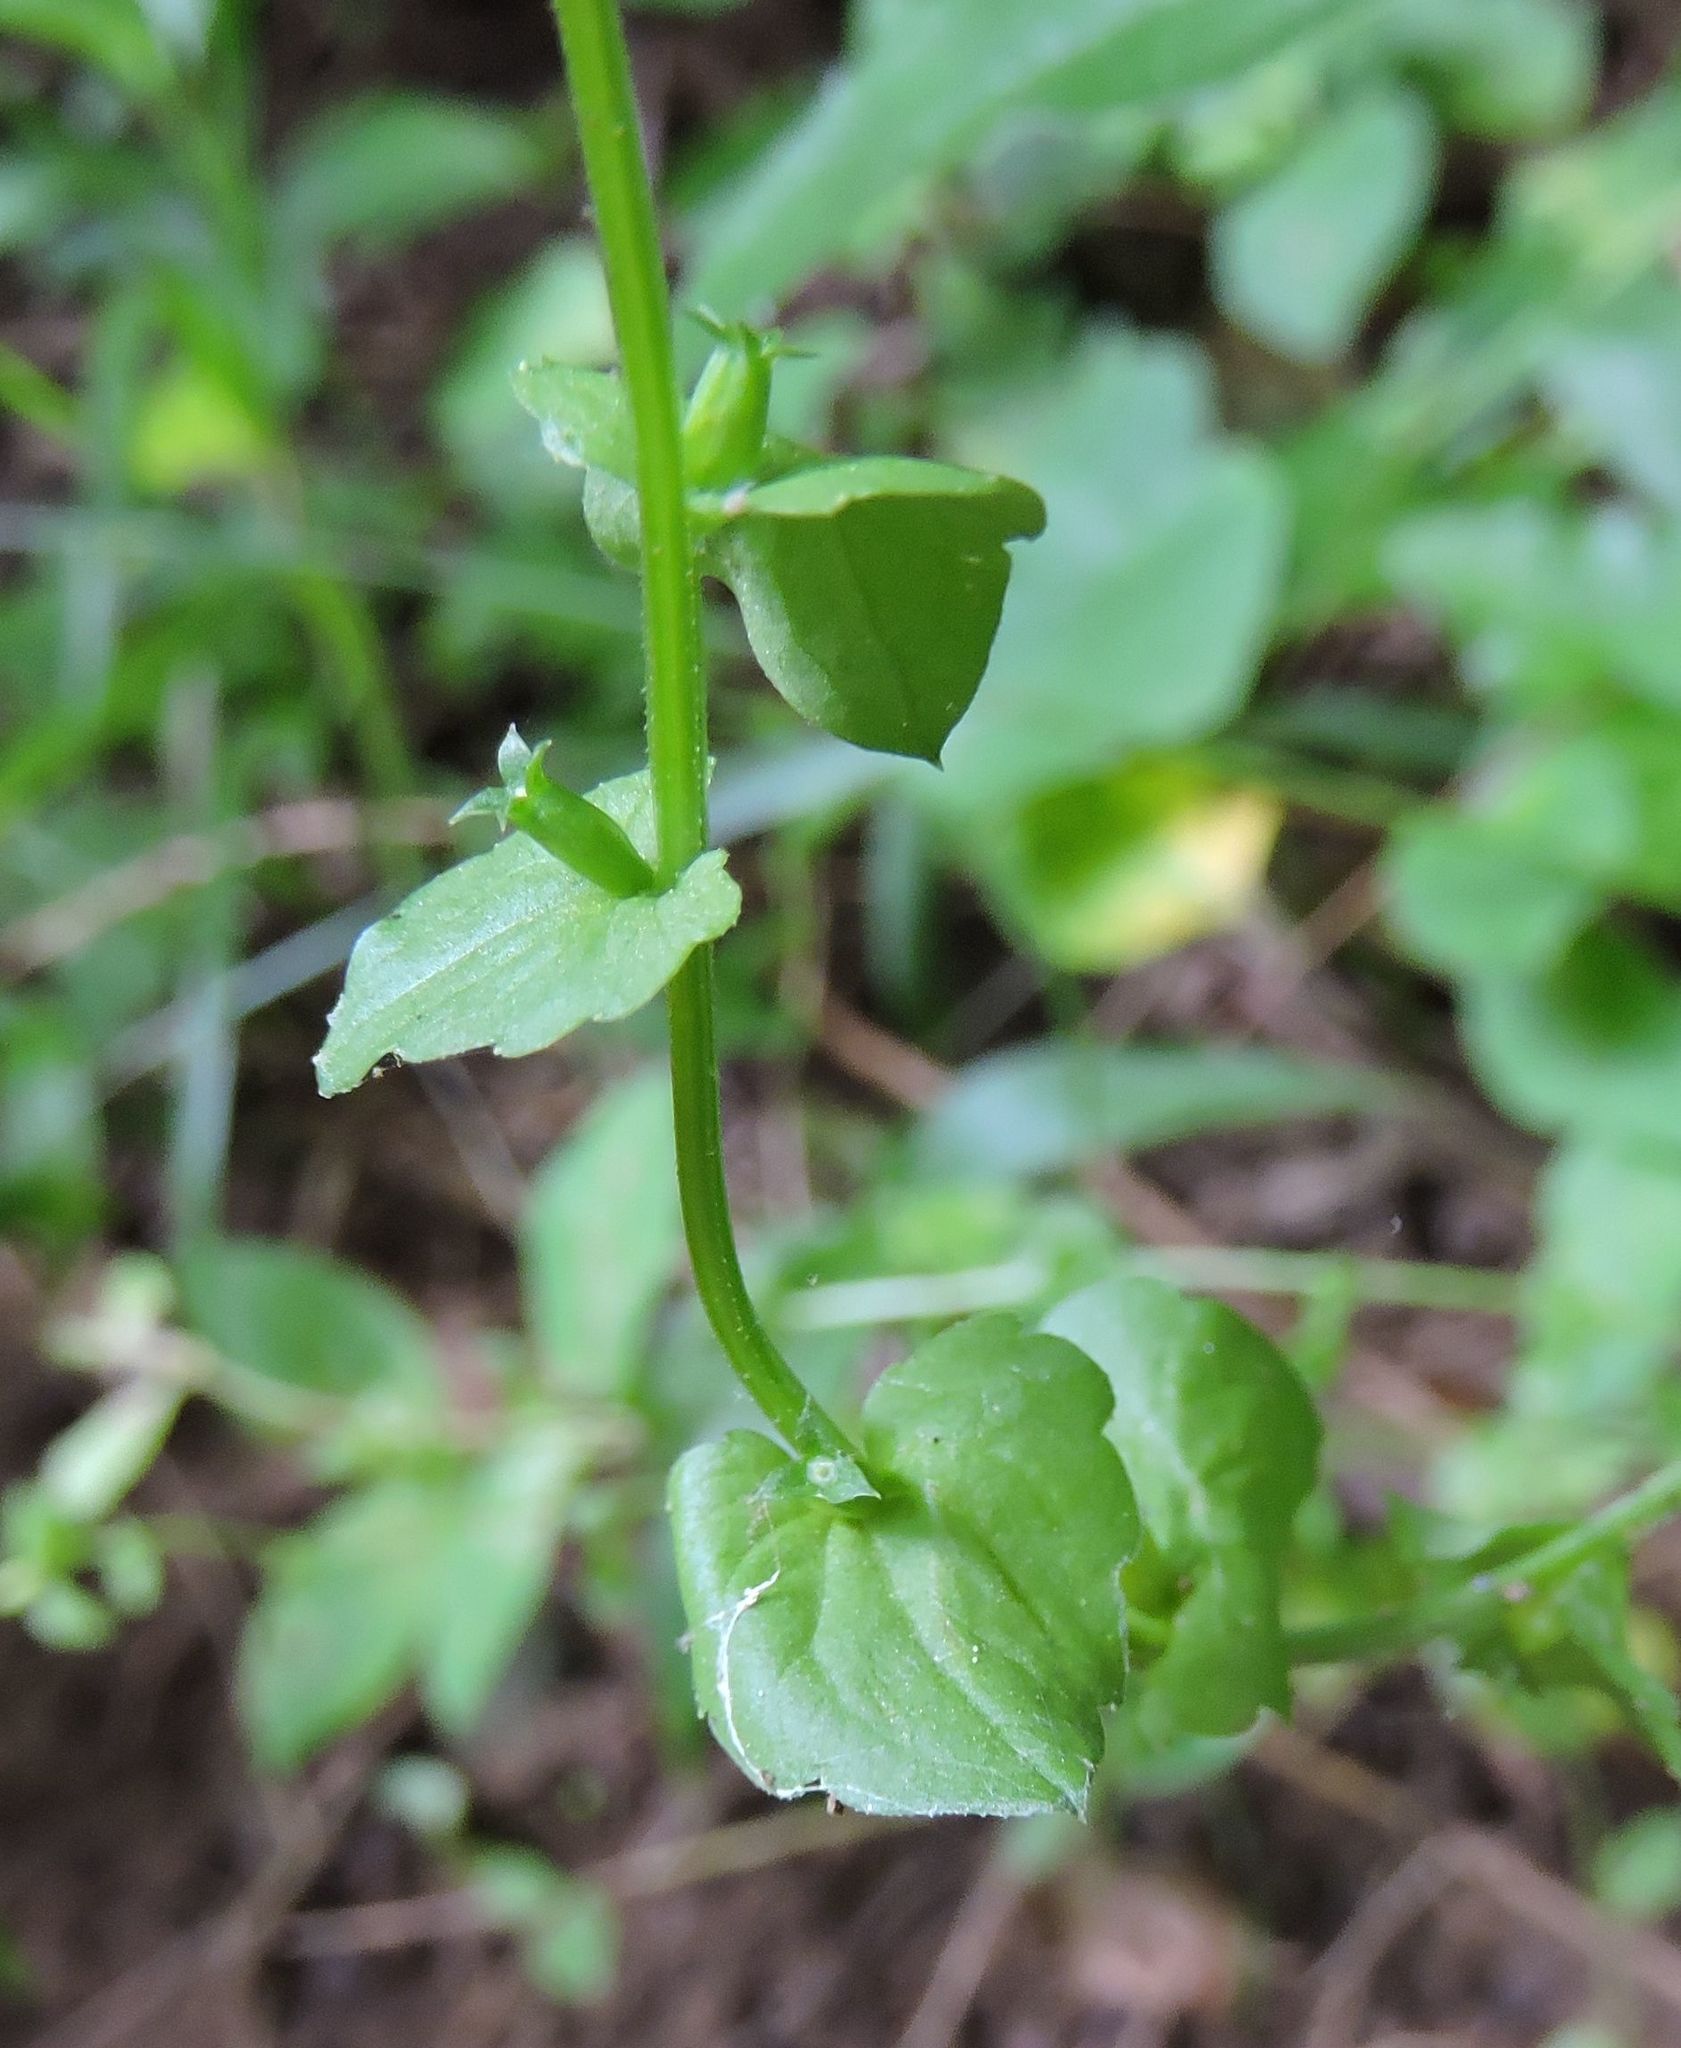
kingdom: Plantae
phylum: Tracheophyta
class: Magnoliopsida
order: Asterales
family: Campanulaceae
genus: Triodanis
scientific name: Triodanis perfoliata
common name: Clasping venus' looking-glass
